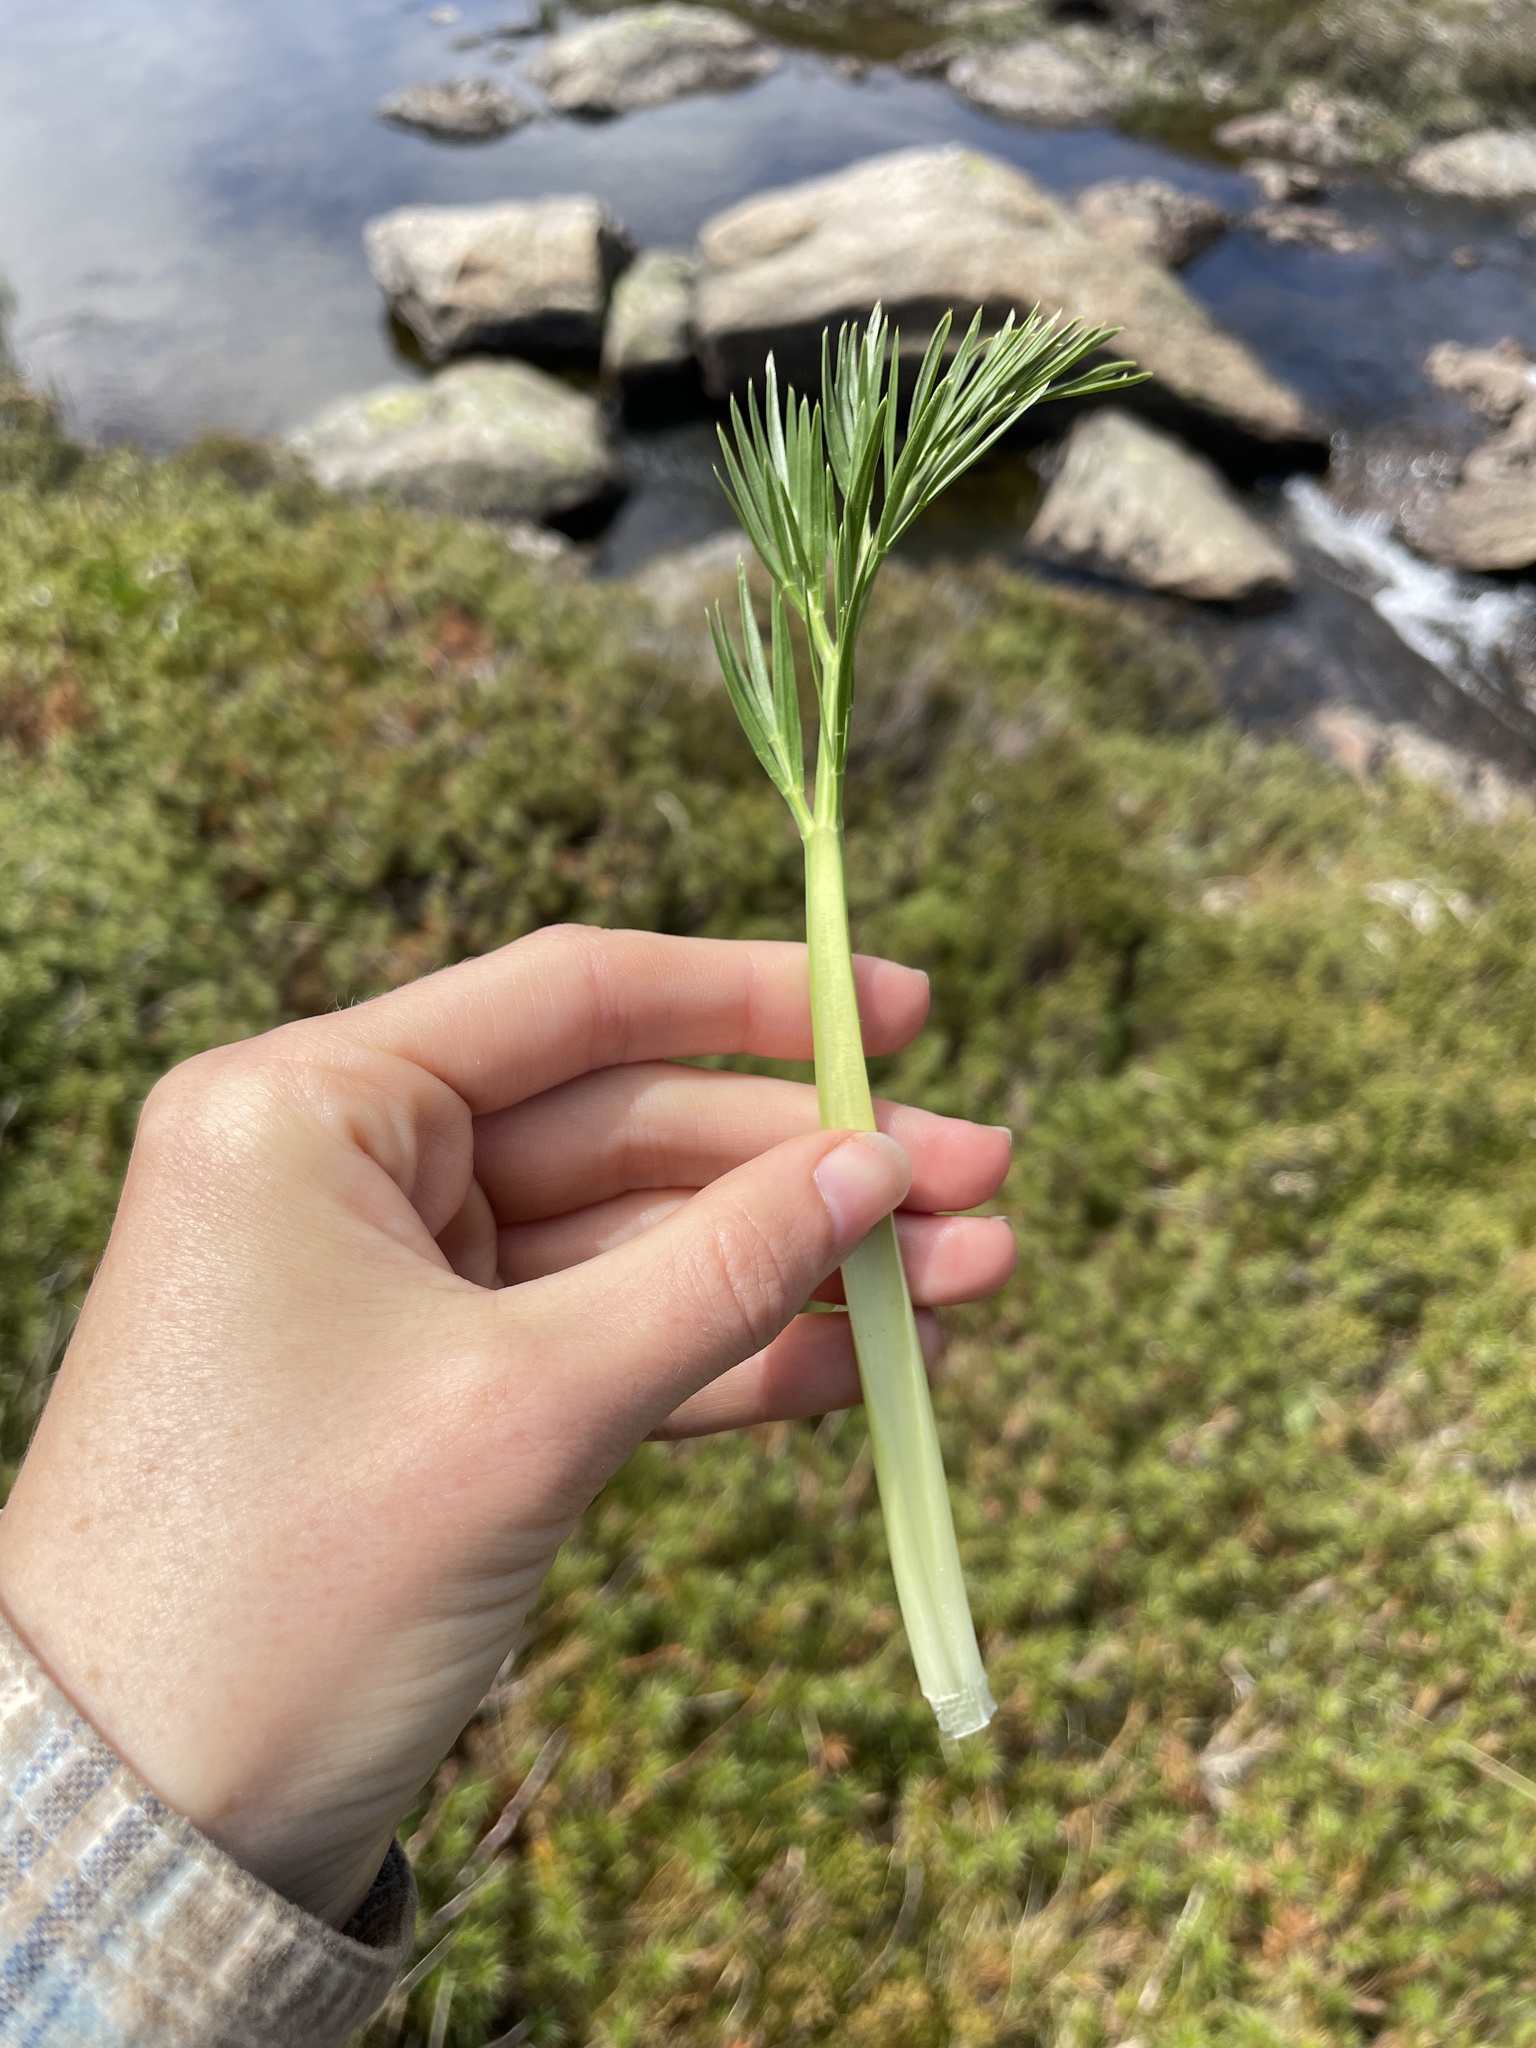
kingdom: Plantae
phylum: Tracheophyta
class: Magnoliopsida
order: Apiales
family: Apiaceae
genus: Aciphylla
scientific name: Aciphylla glacialis
